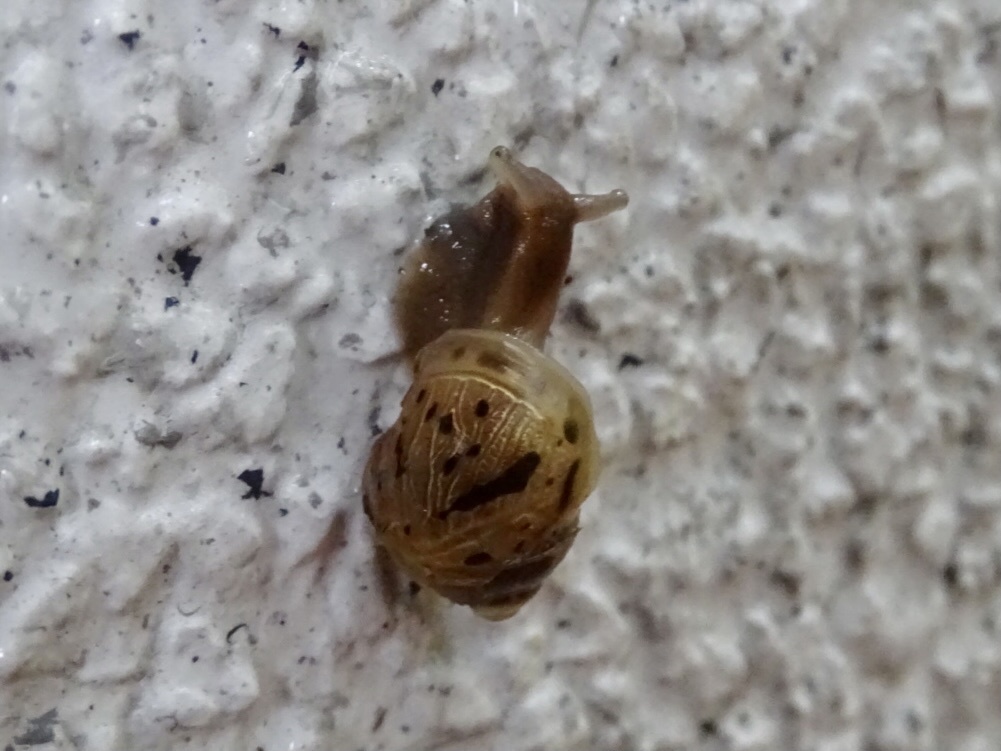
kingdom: Animalia
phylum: Mollusca
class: Gastropoda
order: Stylommatophora
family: Achatinidae
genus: Lissachatina
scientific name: Lissachatina fulica
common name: Giant african snail
